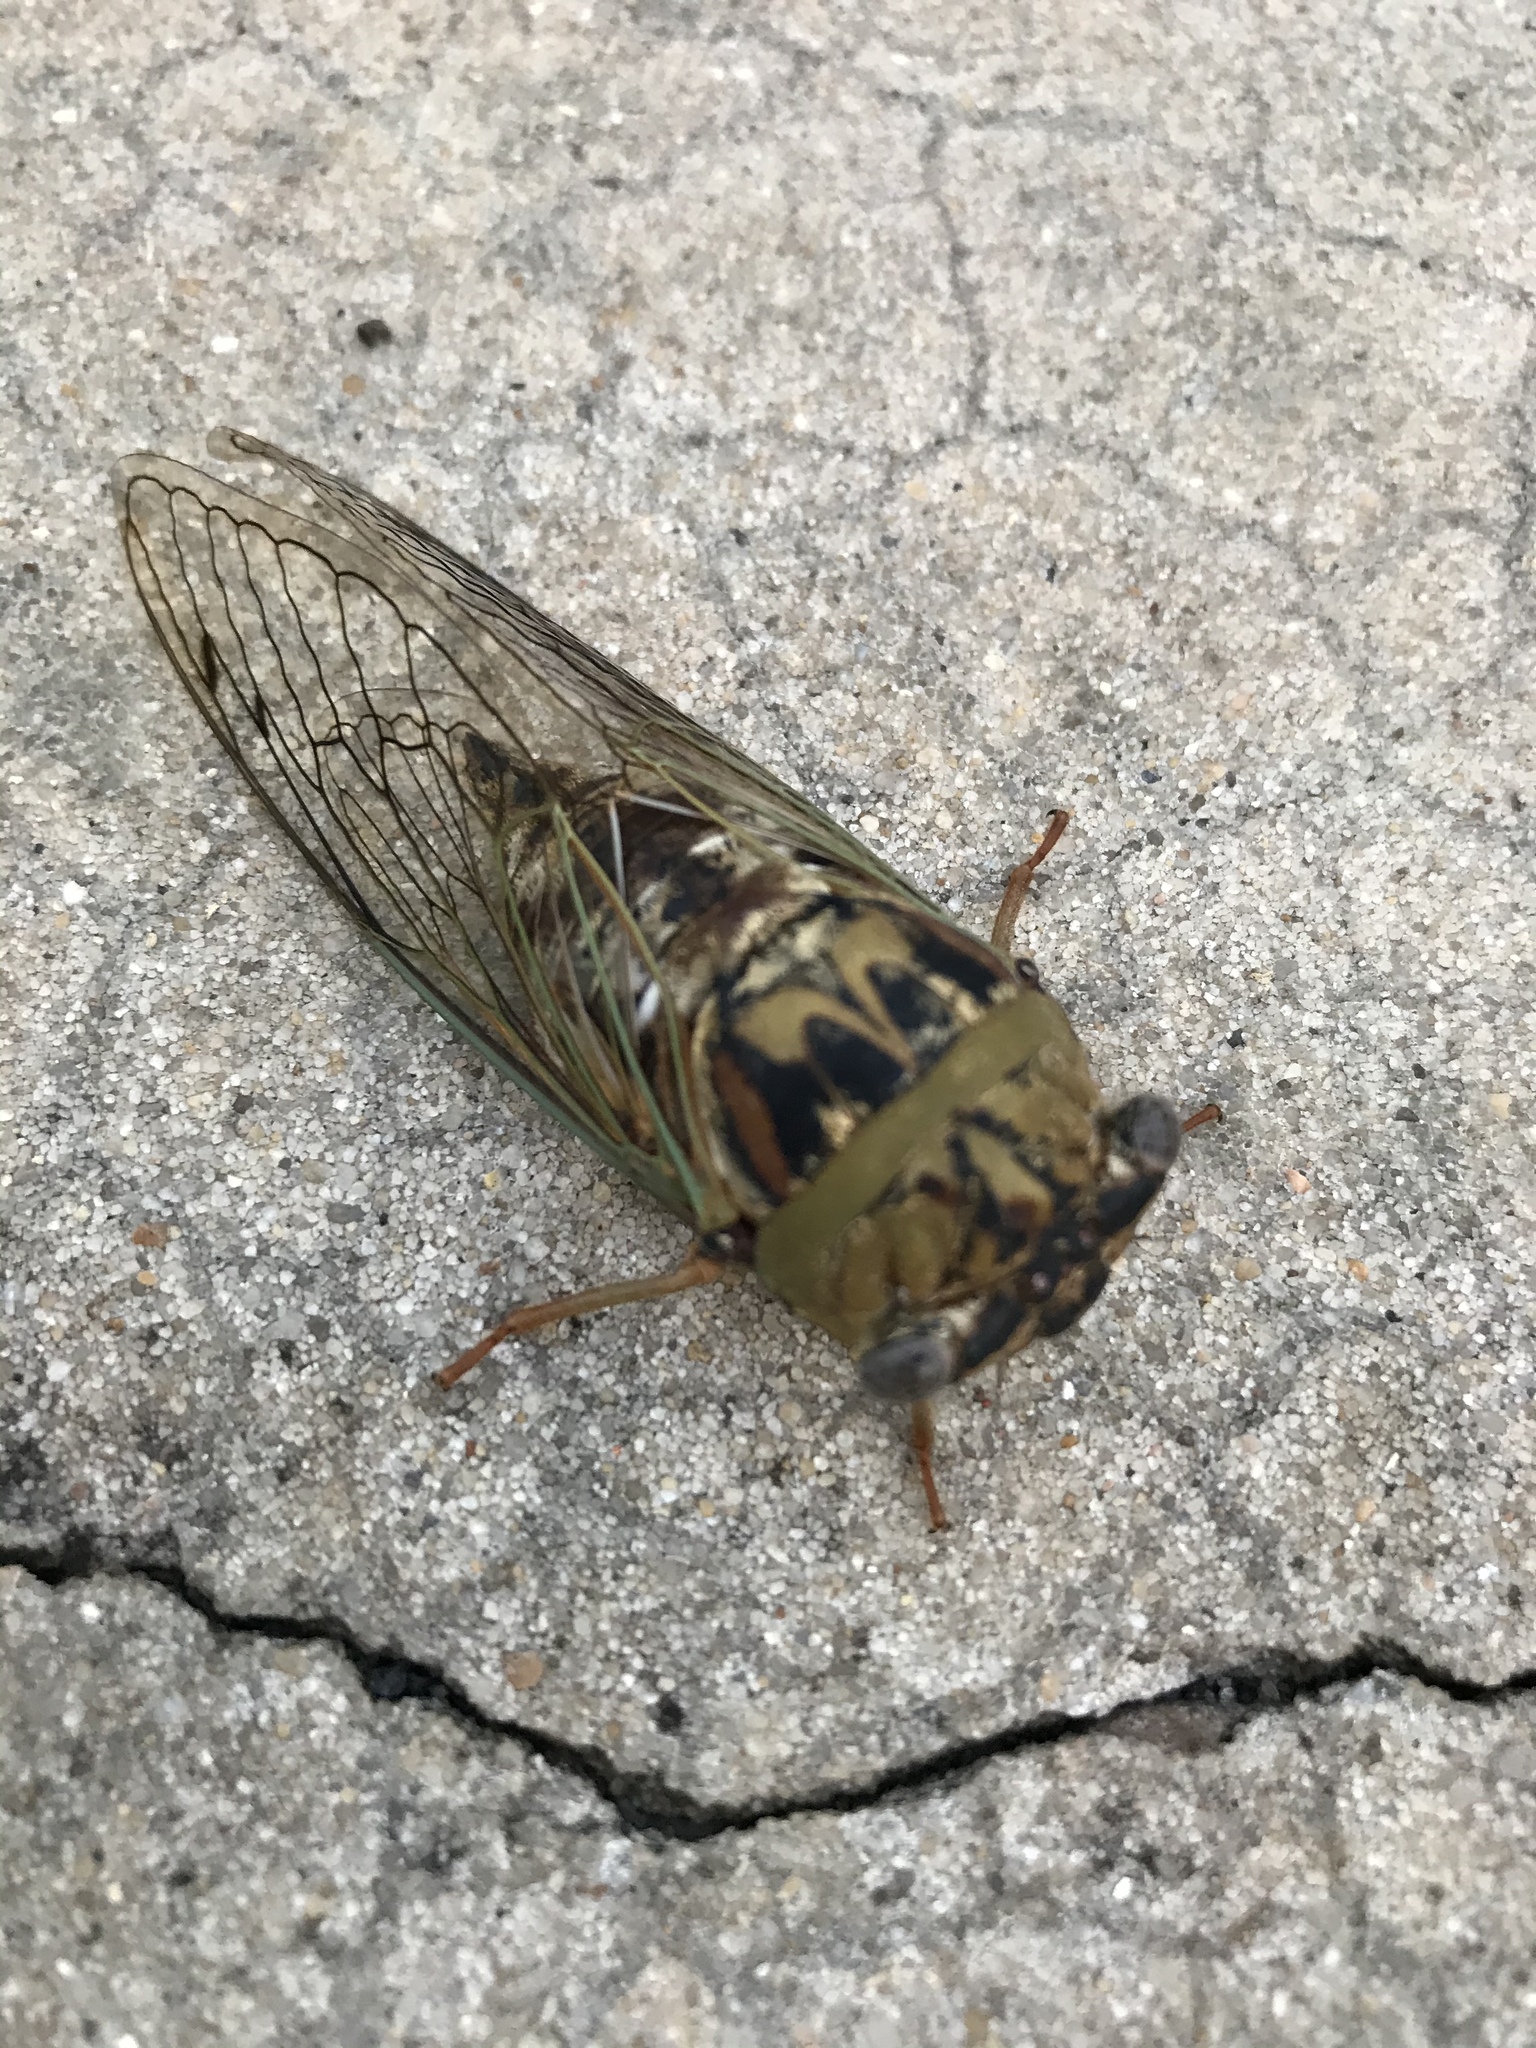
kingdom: Animalia
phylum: Arthropoda
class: Insecta
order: Hemiptera
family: Cicadidae
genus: Megatibicen
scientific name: Megatibicen resh
